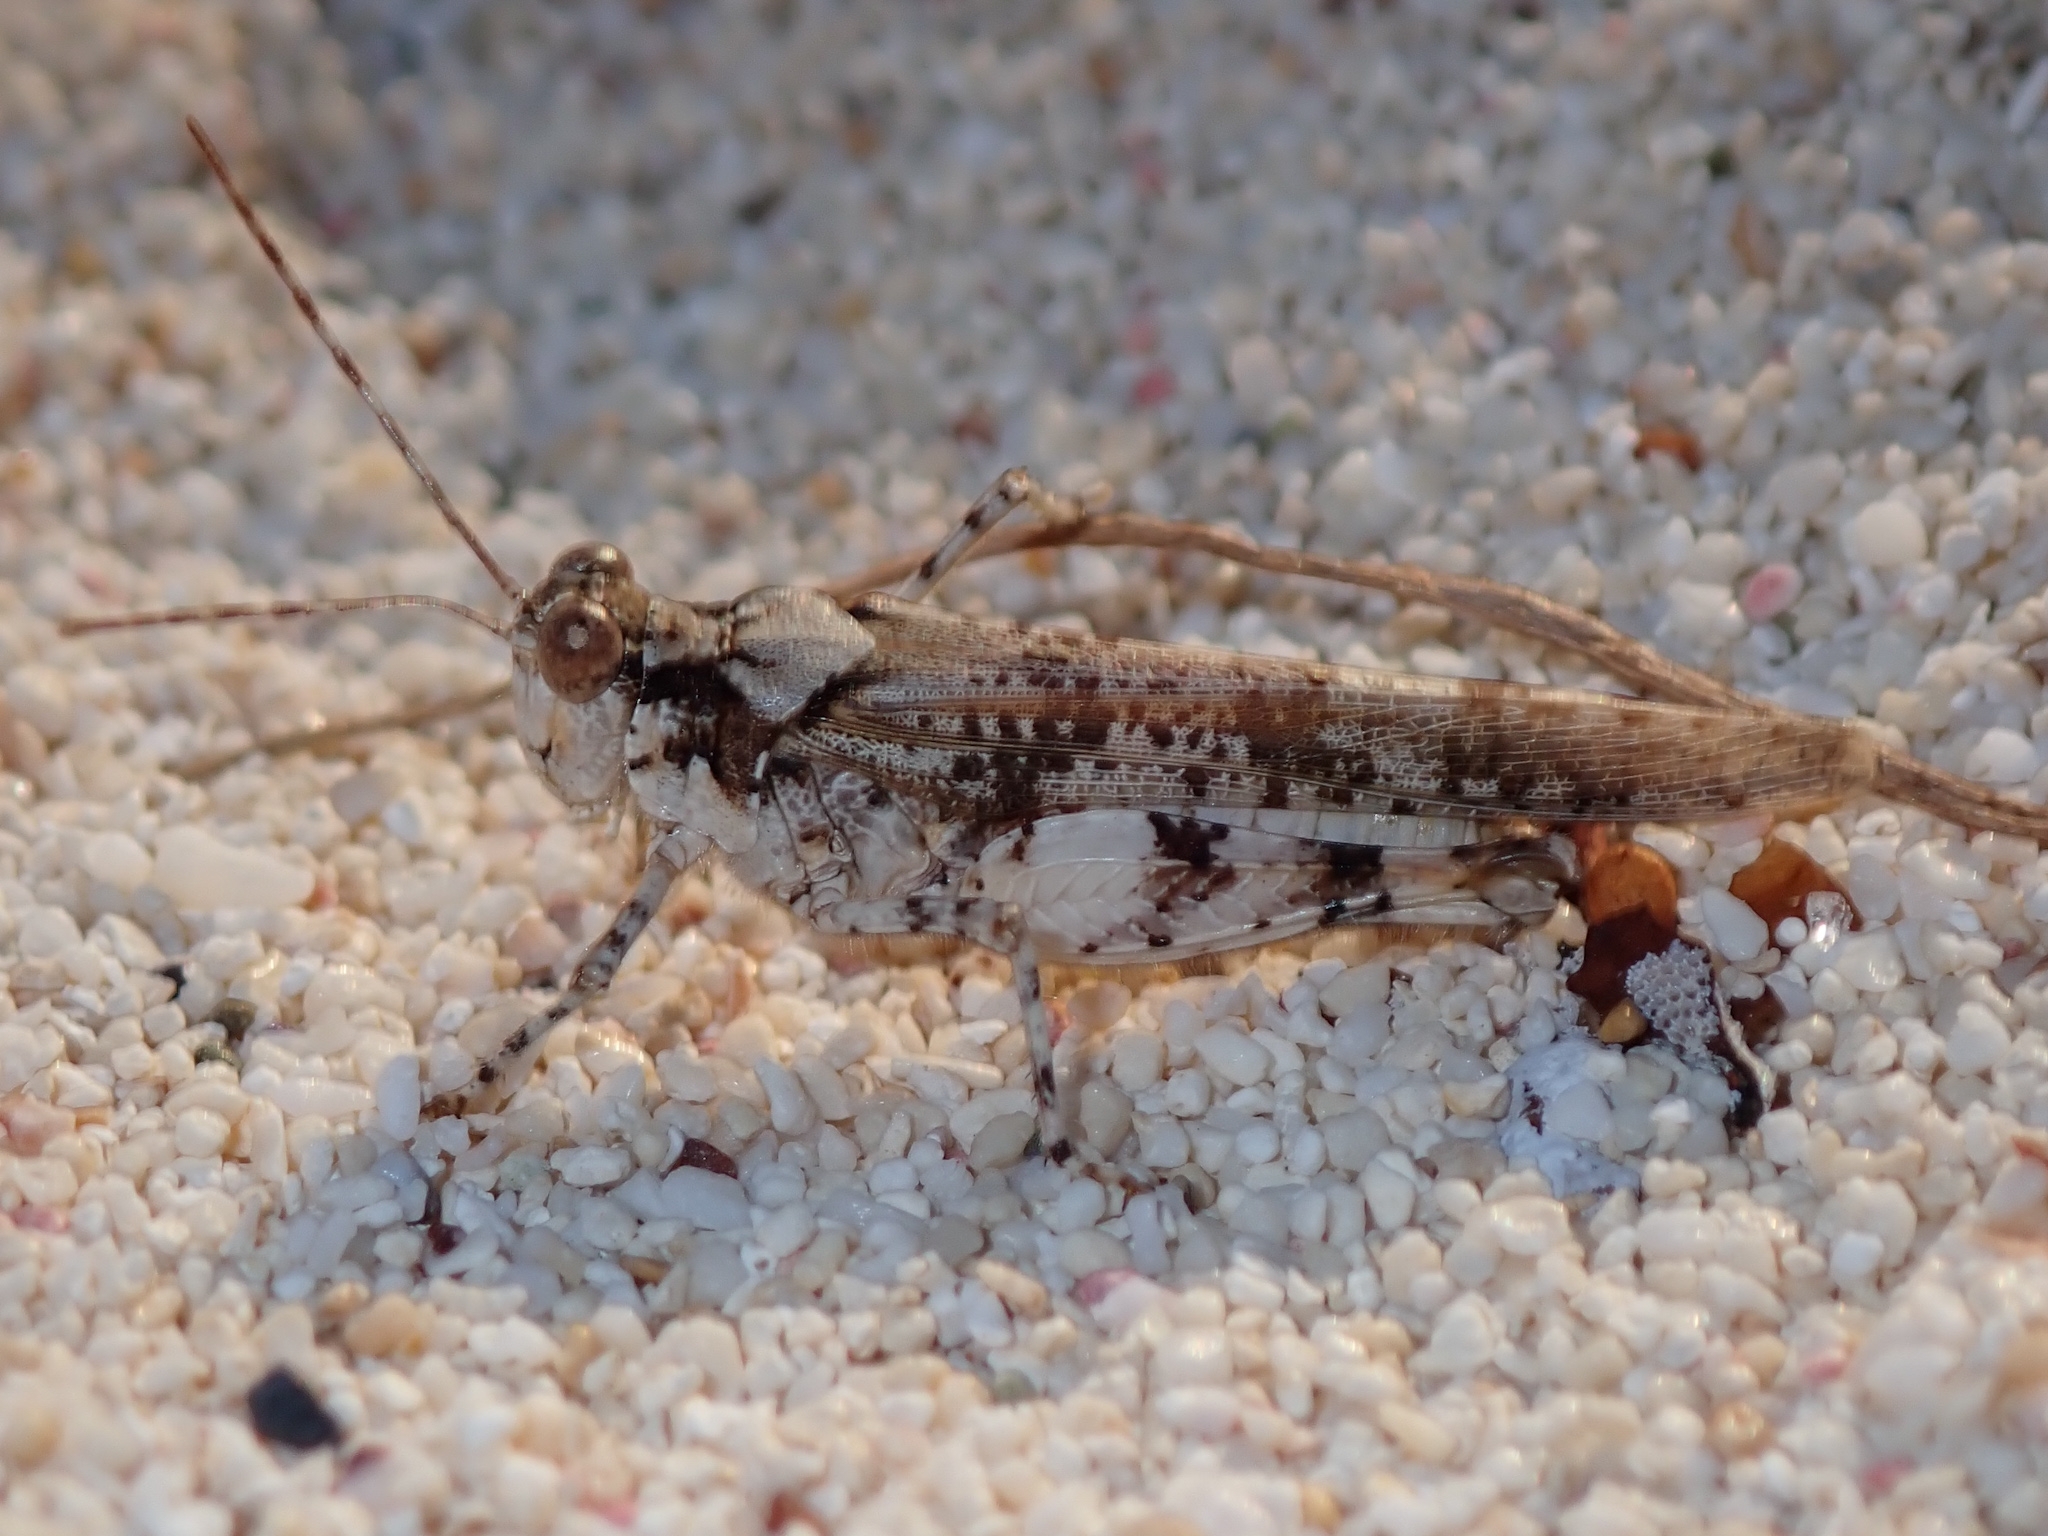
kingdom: Animalia
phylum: Arthropoda
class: Insecta
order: Orthoptera
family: Acrididae
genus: Heliastus
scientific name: Heliastus sumichrasti
